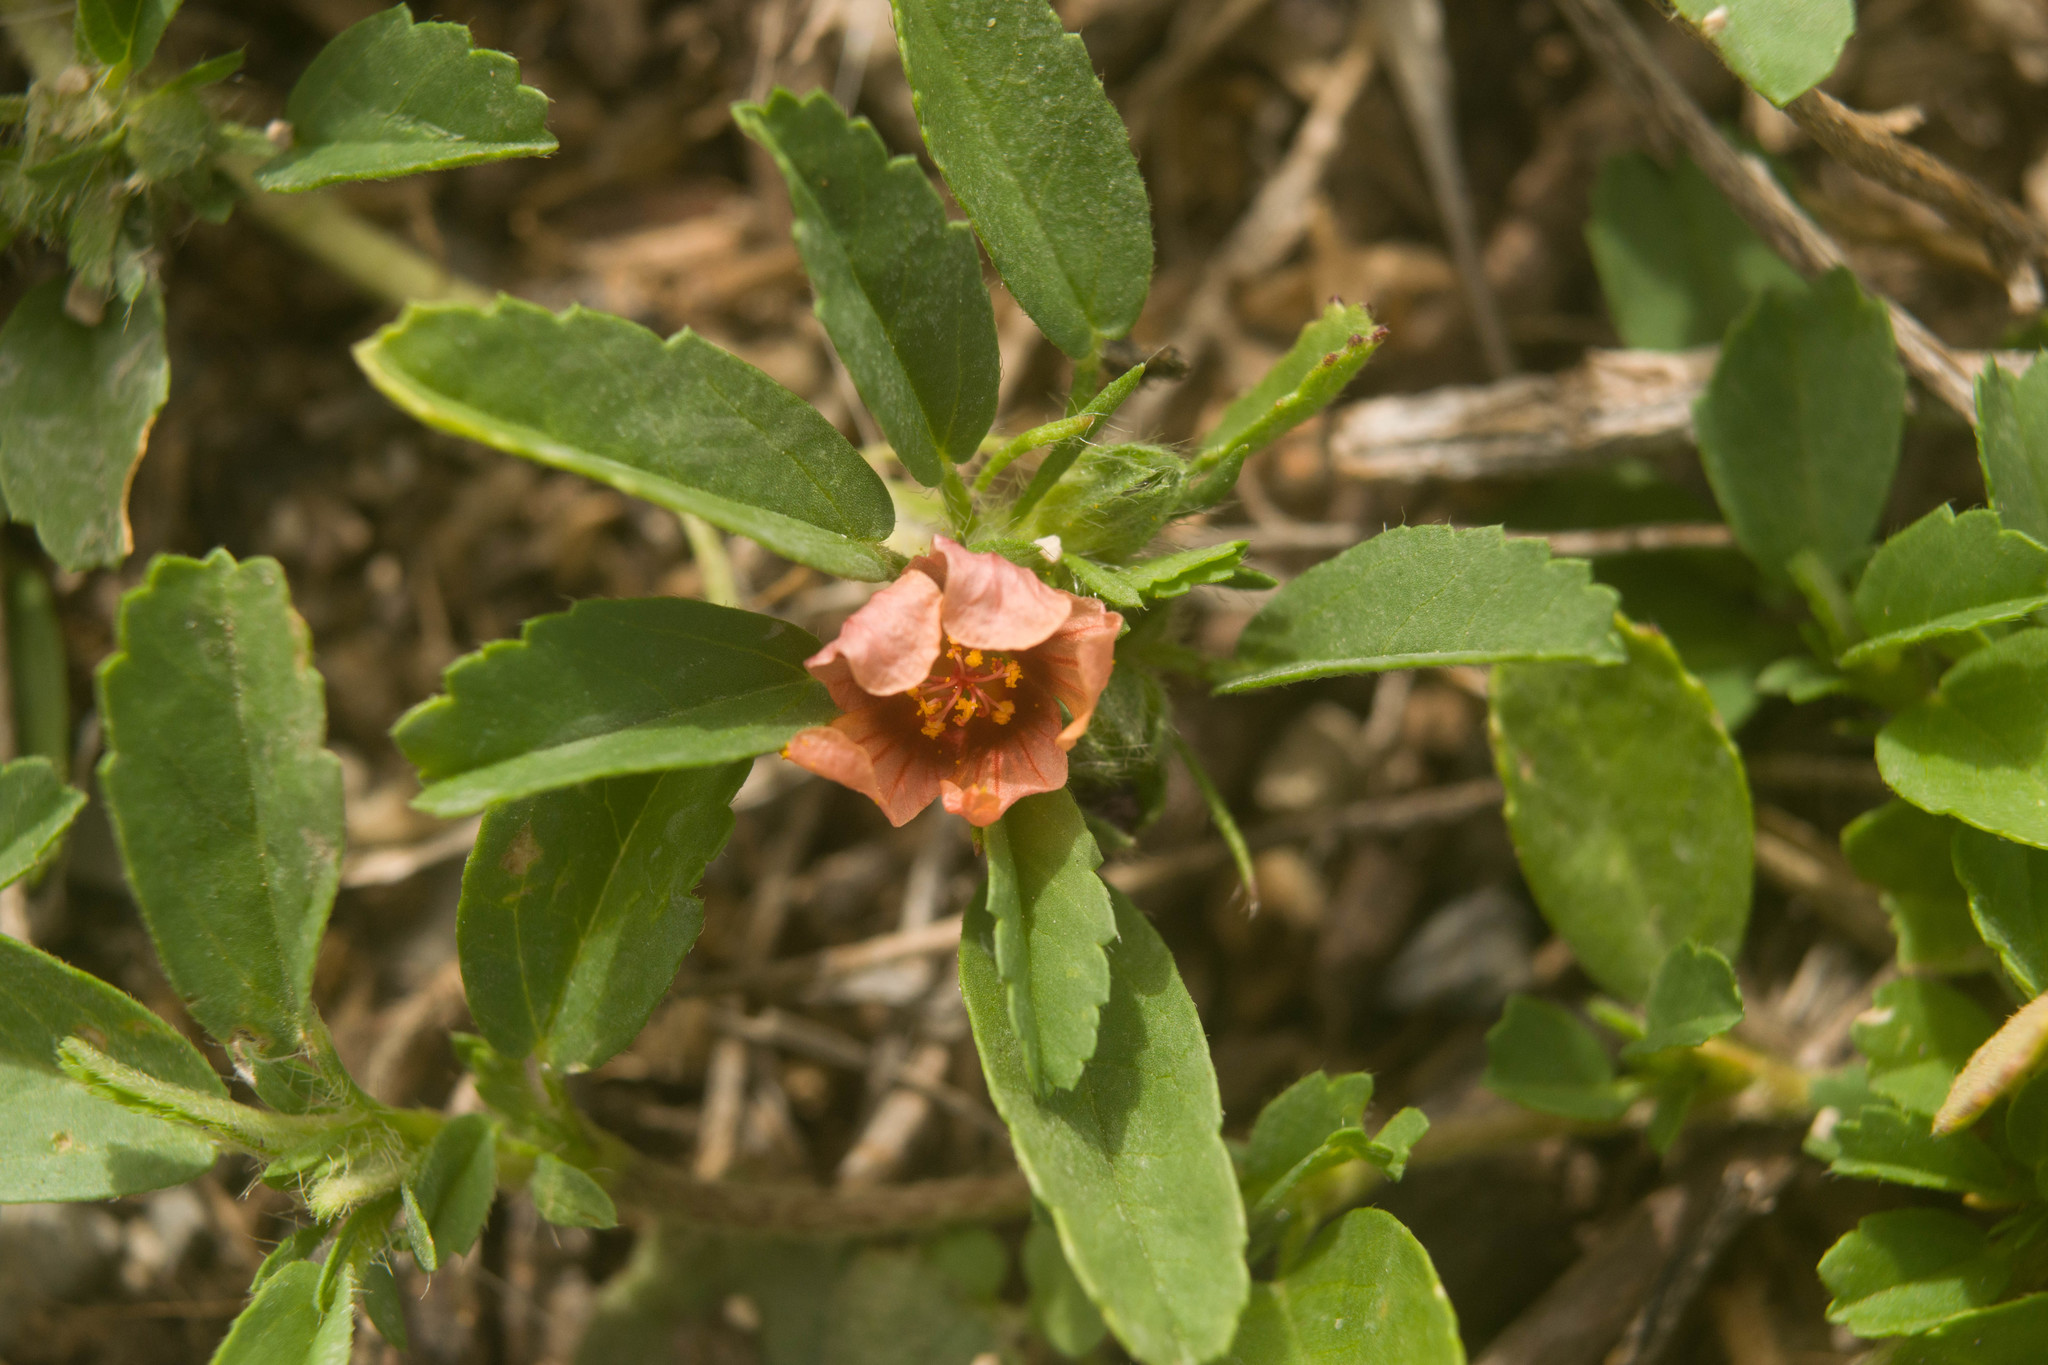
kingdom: Plantae
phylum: Tracheophyta
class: Magnoliopsida
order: Malvales
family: Malvaceae
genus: Sida
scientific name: Sida ciliaris
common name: Bracted fanpetals
